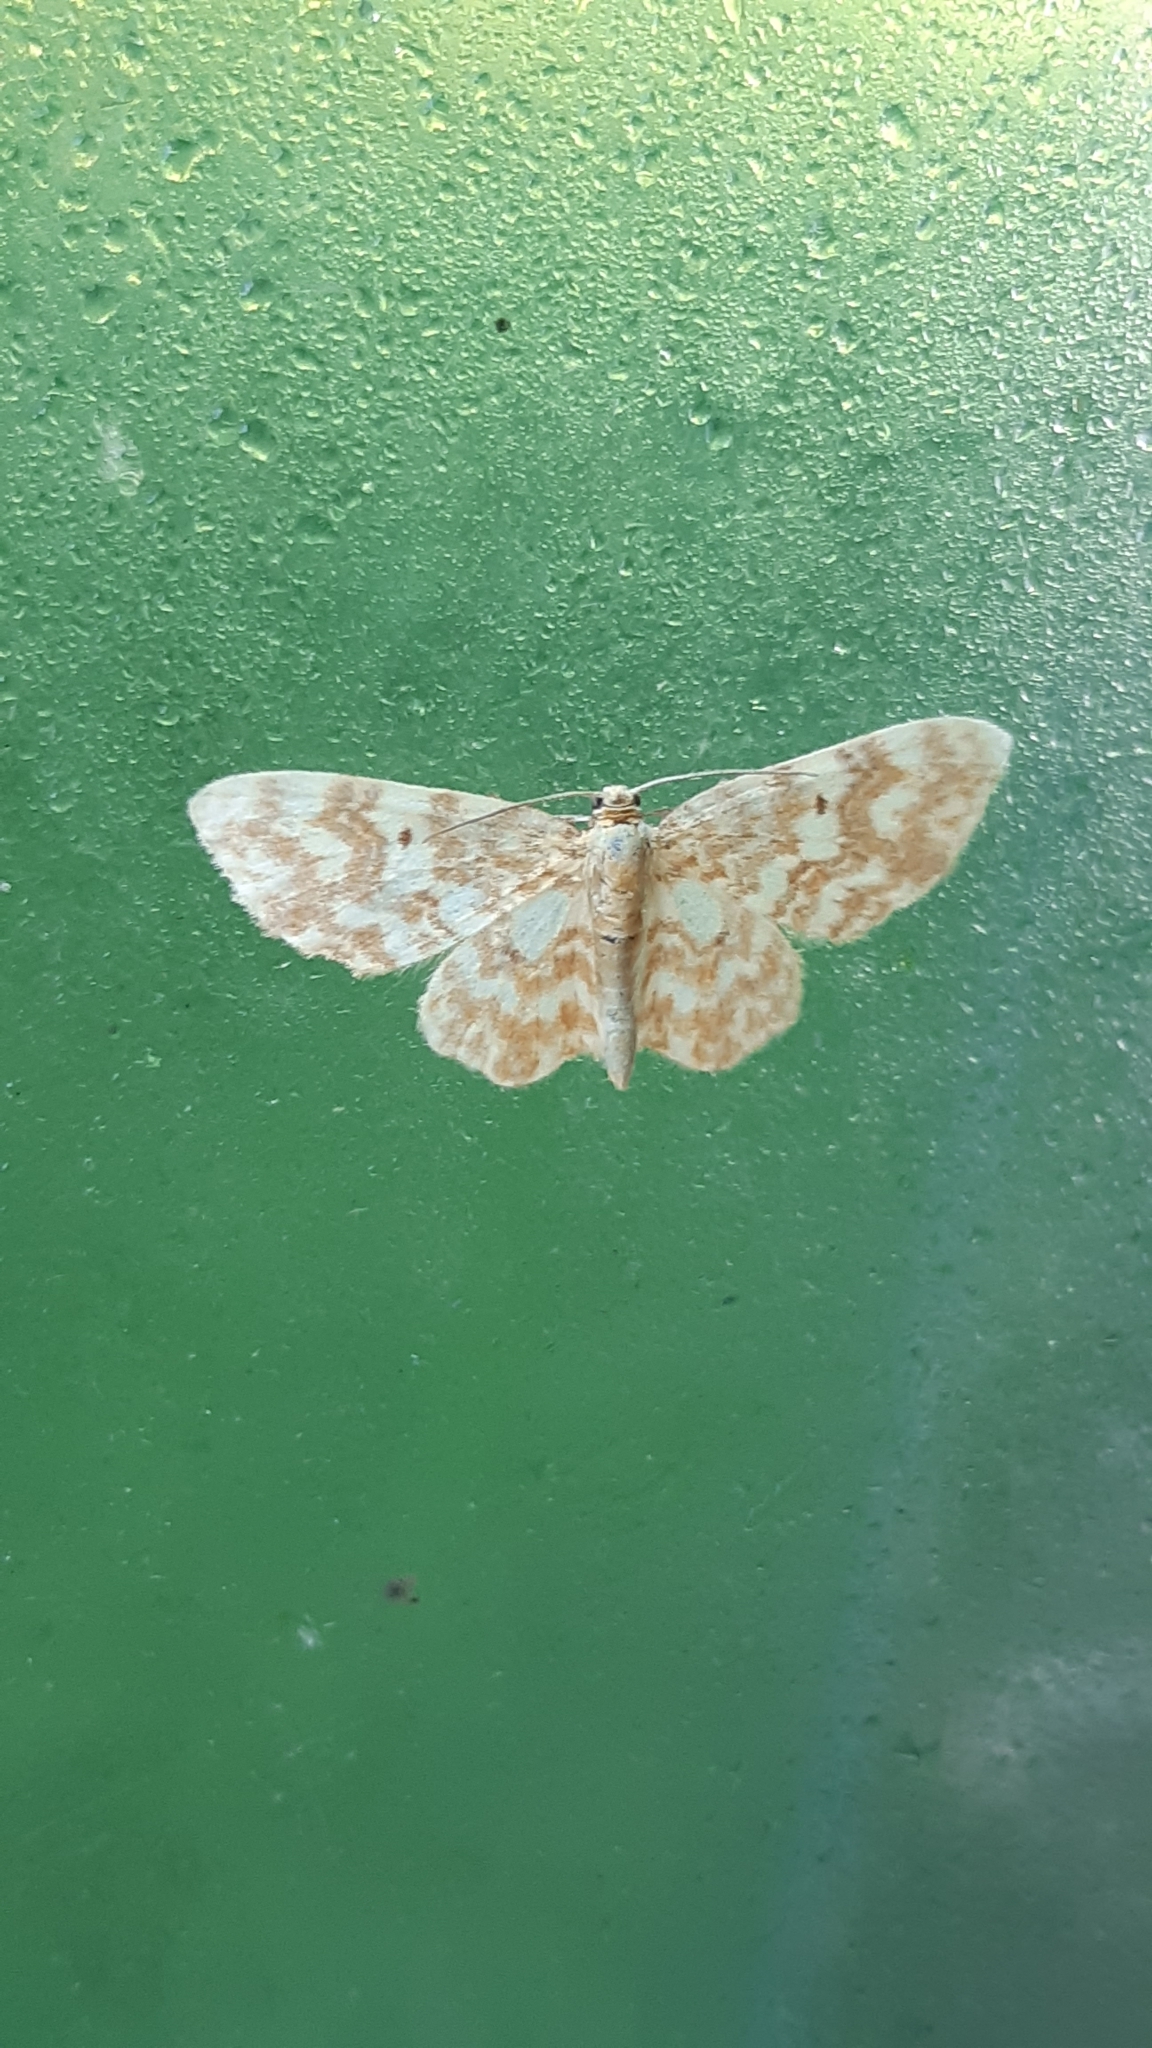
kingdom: Animalia
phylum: Arthropoda
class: Insecta
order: Lepidoptera
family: Geometridae
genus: Hydrelia
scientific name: Hydrelia flammeolaria
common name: Small yellow wave
